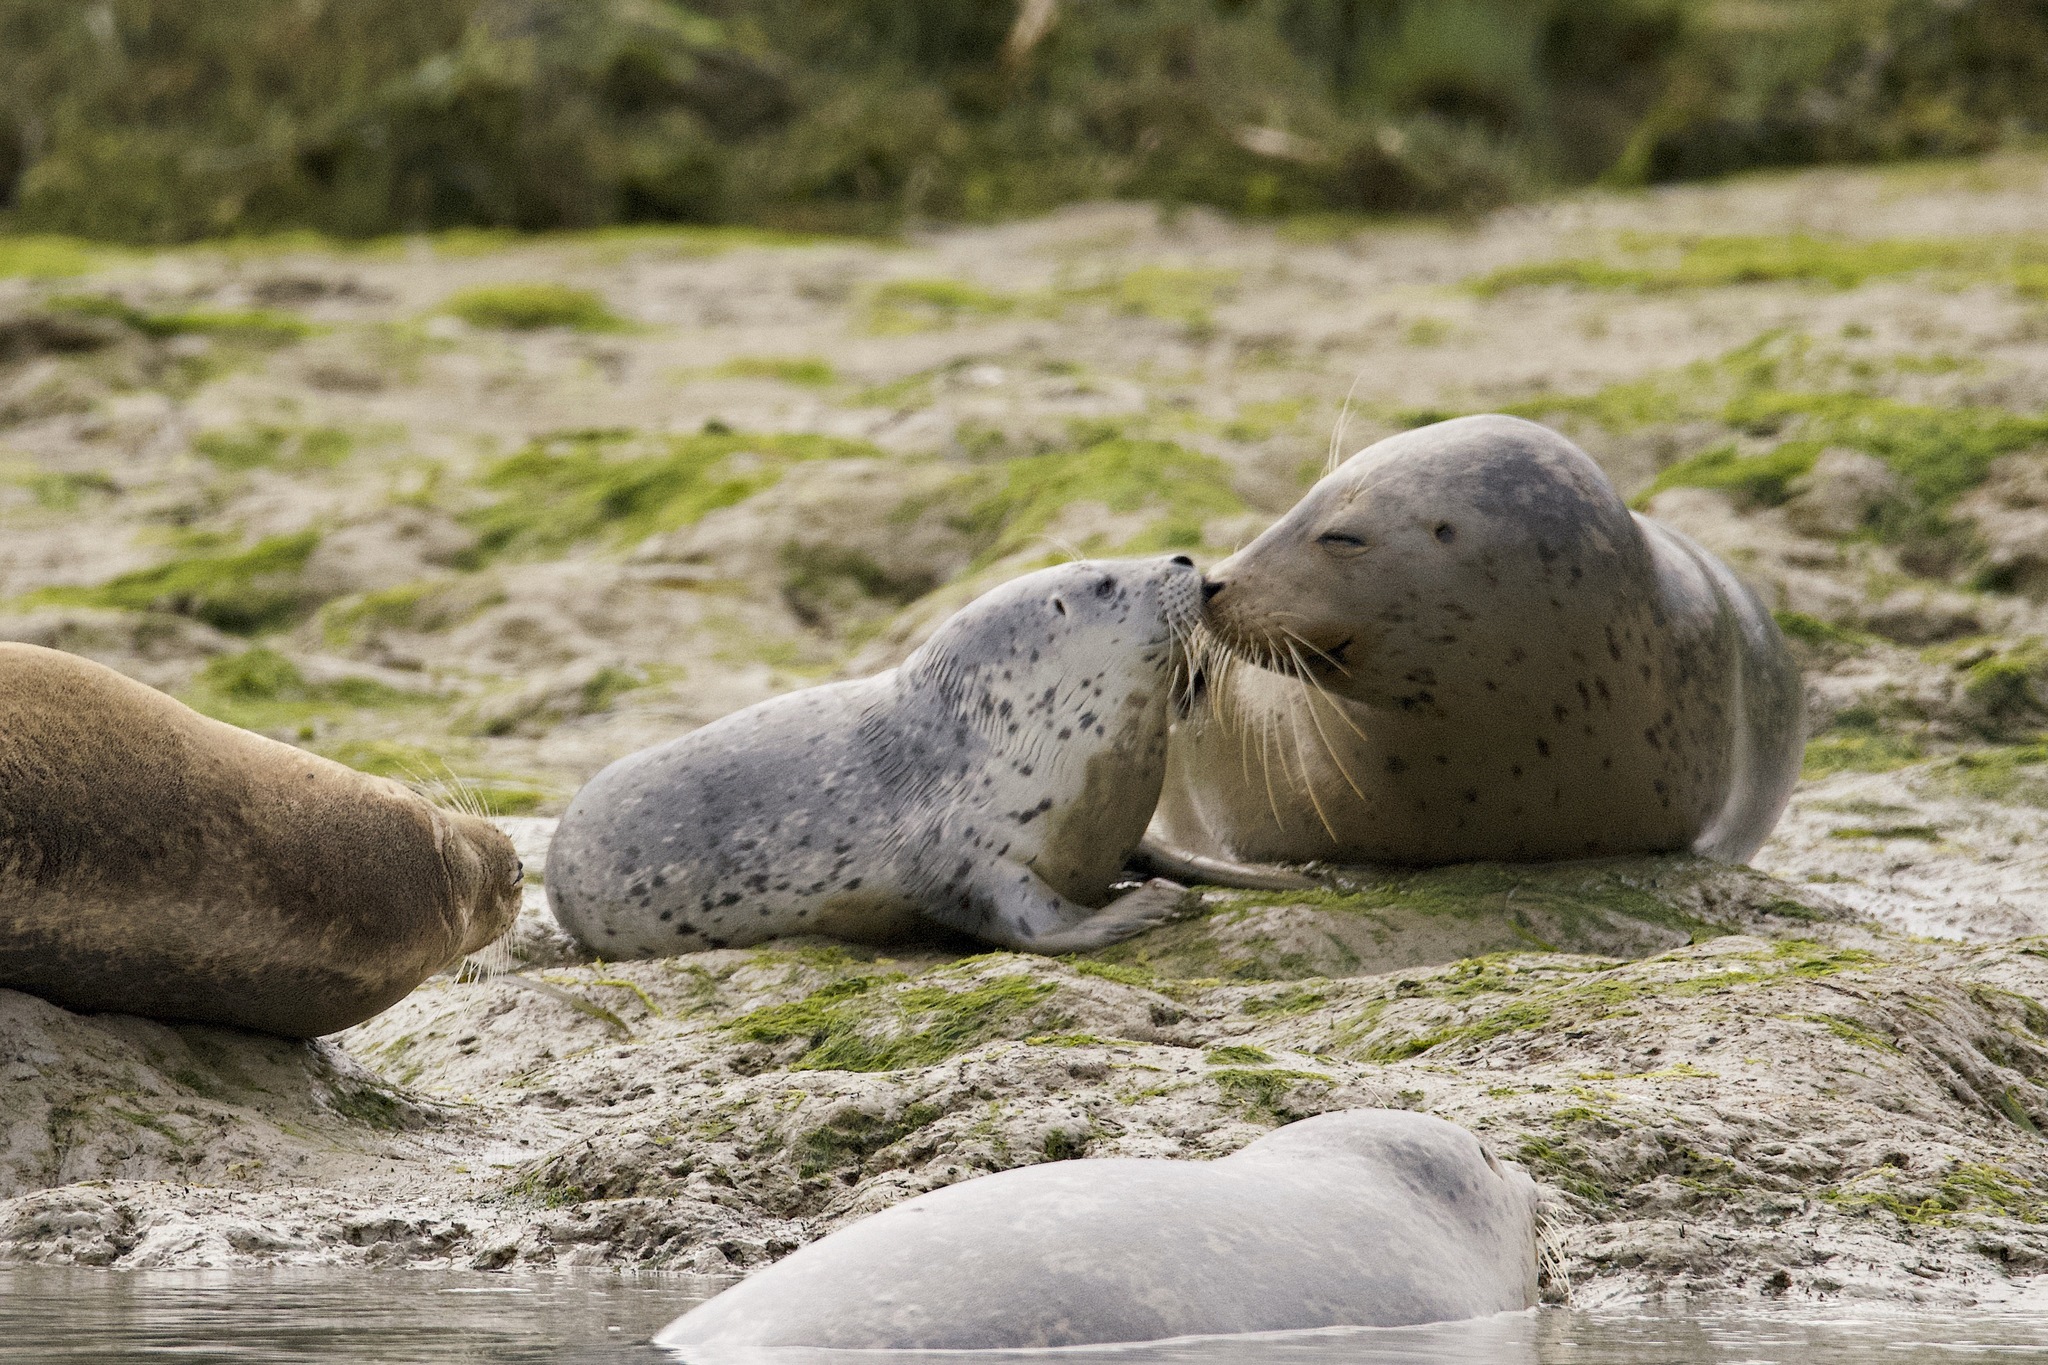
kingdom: Animalia
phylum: Chordata
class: Mammalia
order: Carnivora
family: Phocidae
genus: Phoca
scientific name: Phoca vitulina
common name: Harbor seal
